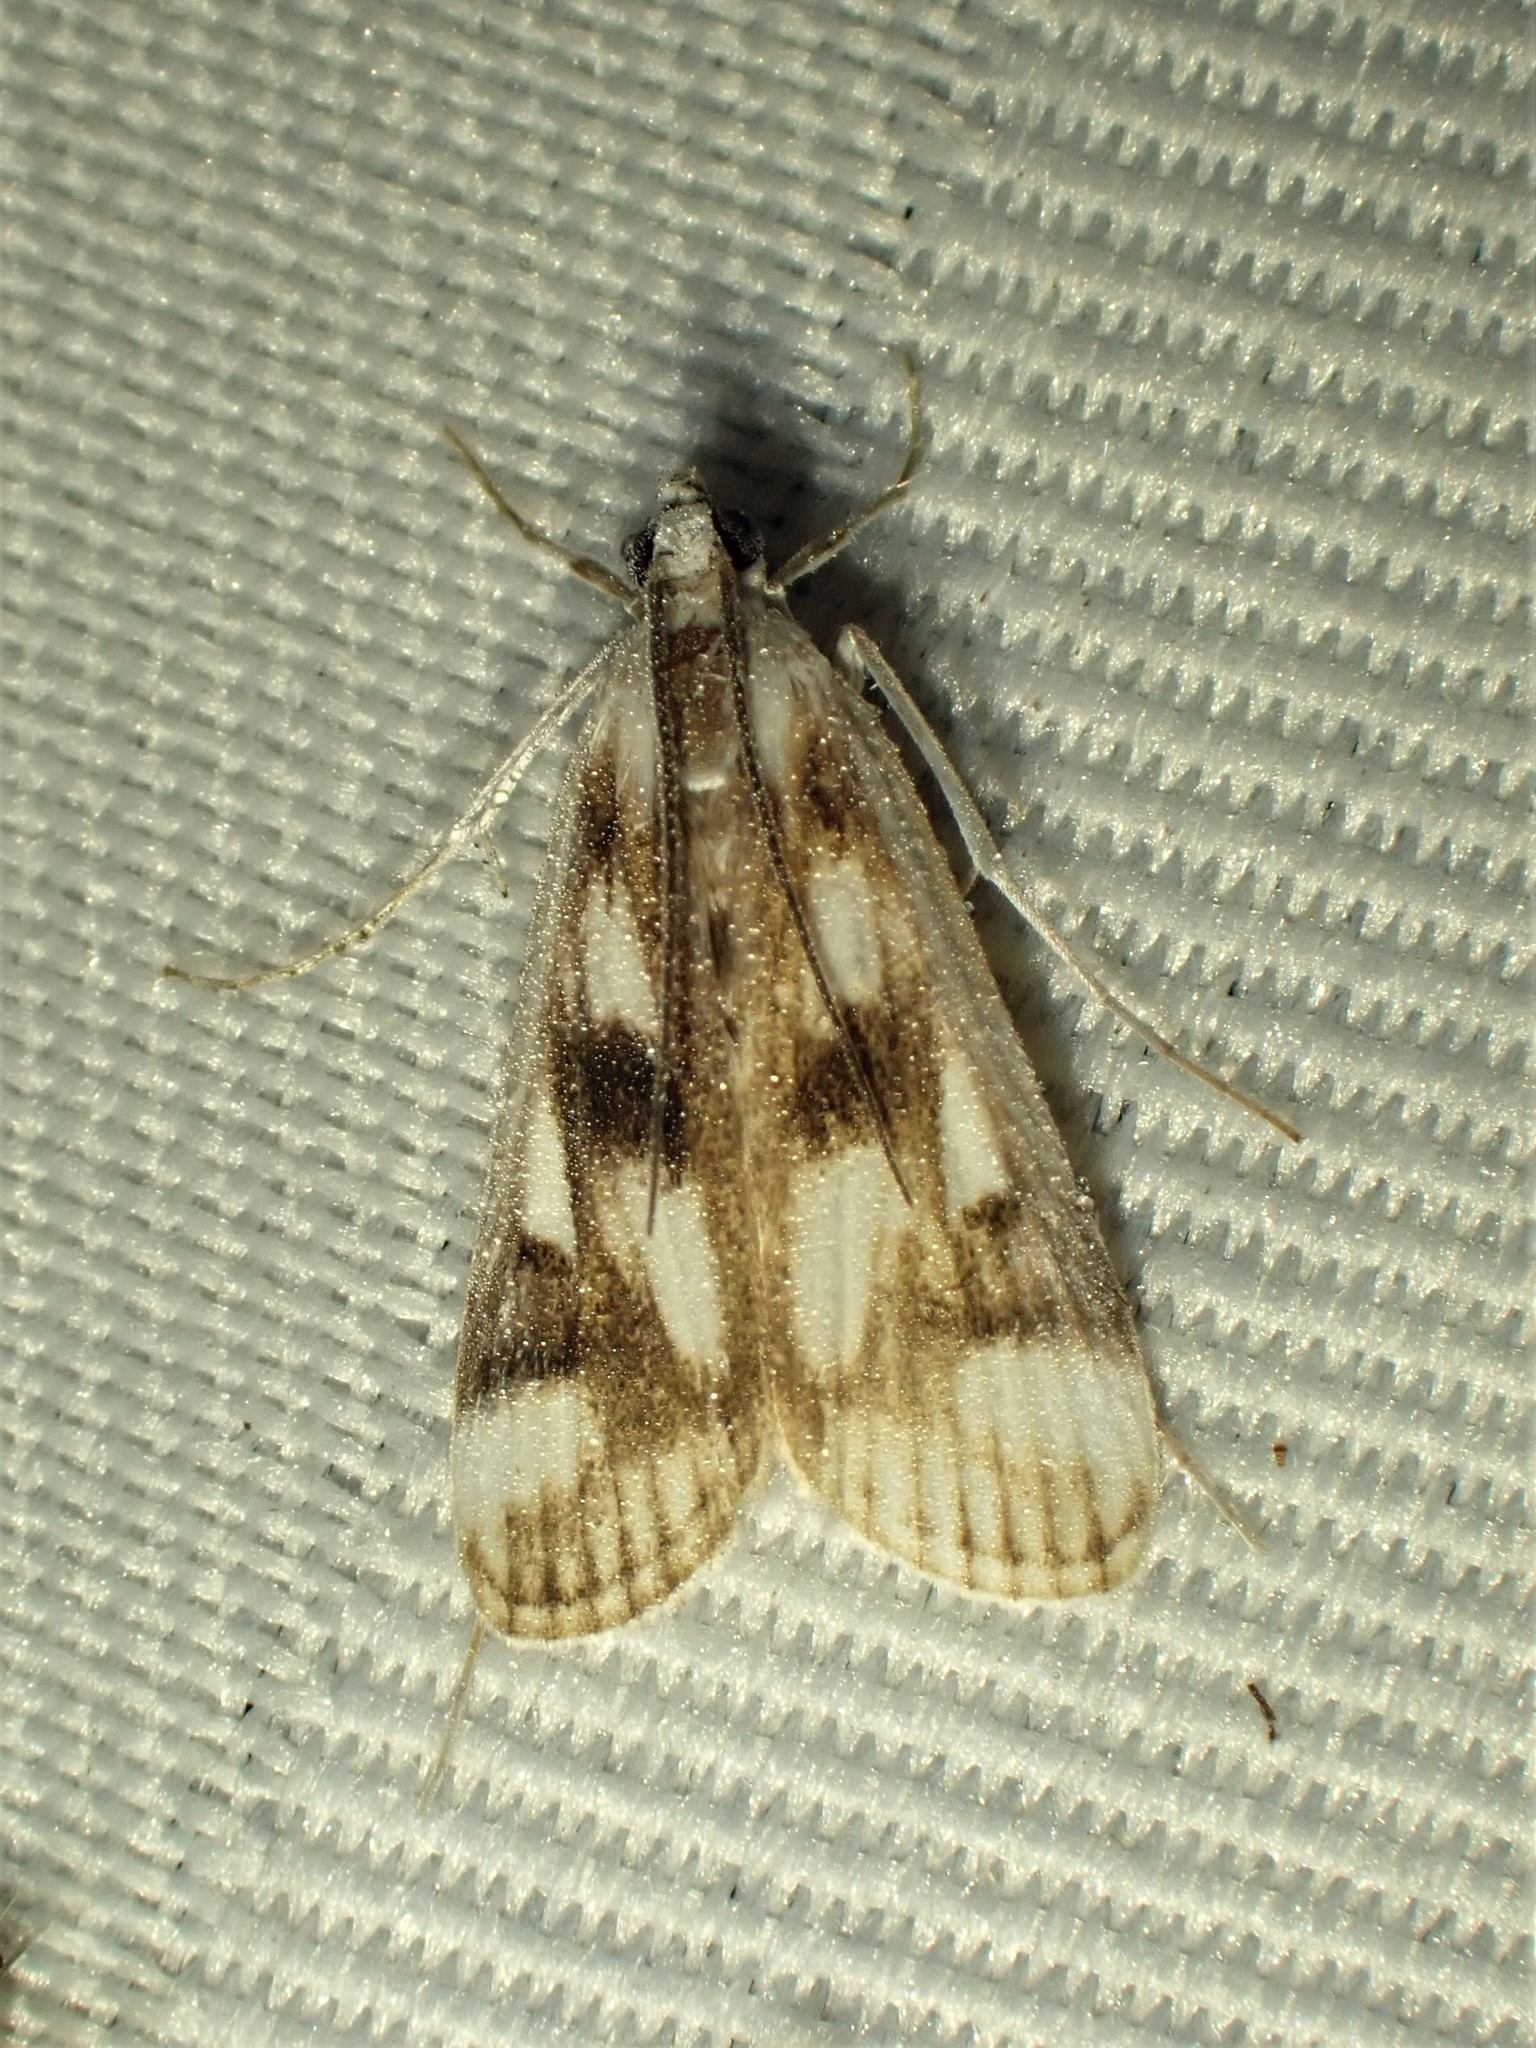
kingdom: Animalia
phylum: Arthropoda
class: Insecta
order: Lepidoptera
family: Crambidae
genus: Parapoynx
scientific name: Parapoynx maculalis
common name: Polymorphic pondweed moth
